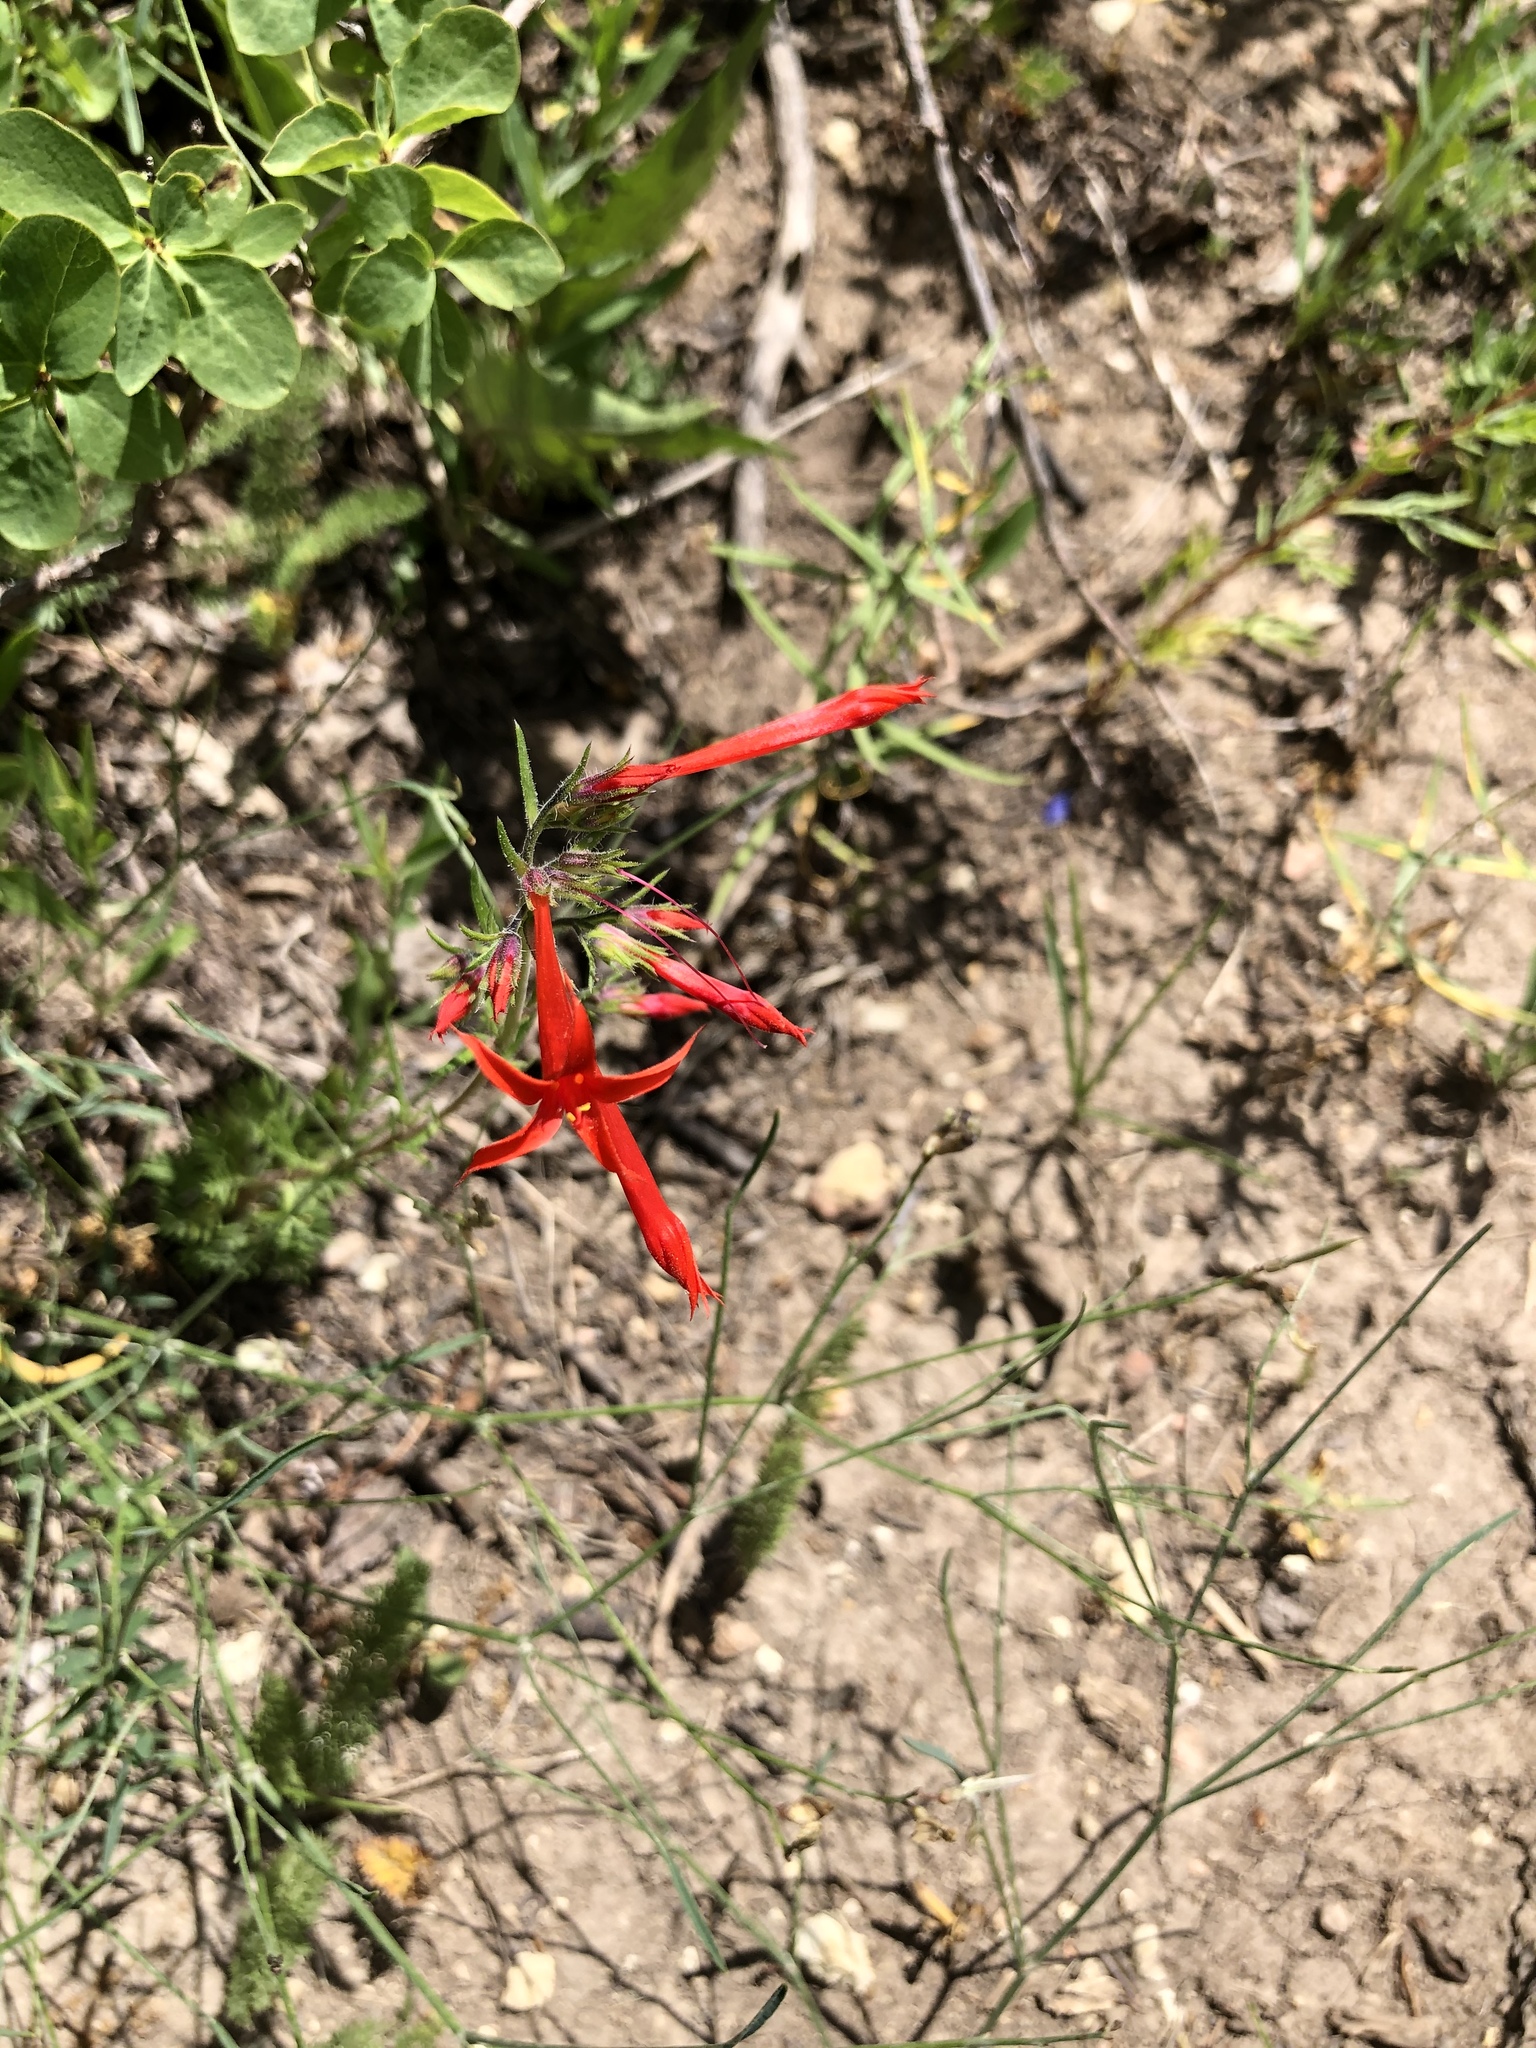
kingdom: Plantae
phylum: Tracheophyta
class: Magnoliopsida
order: Ericales
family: Polemoniaceae
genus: Ipomopsis
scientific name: Ipomopsis aggregata
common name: Scarlet gilia
